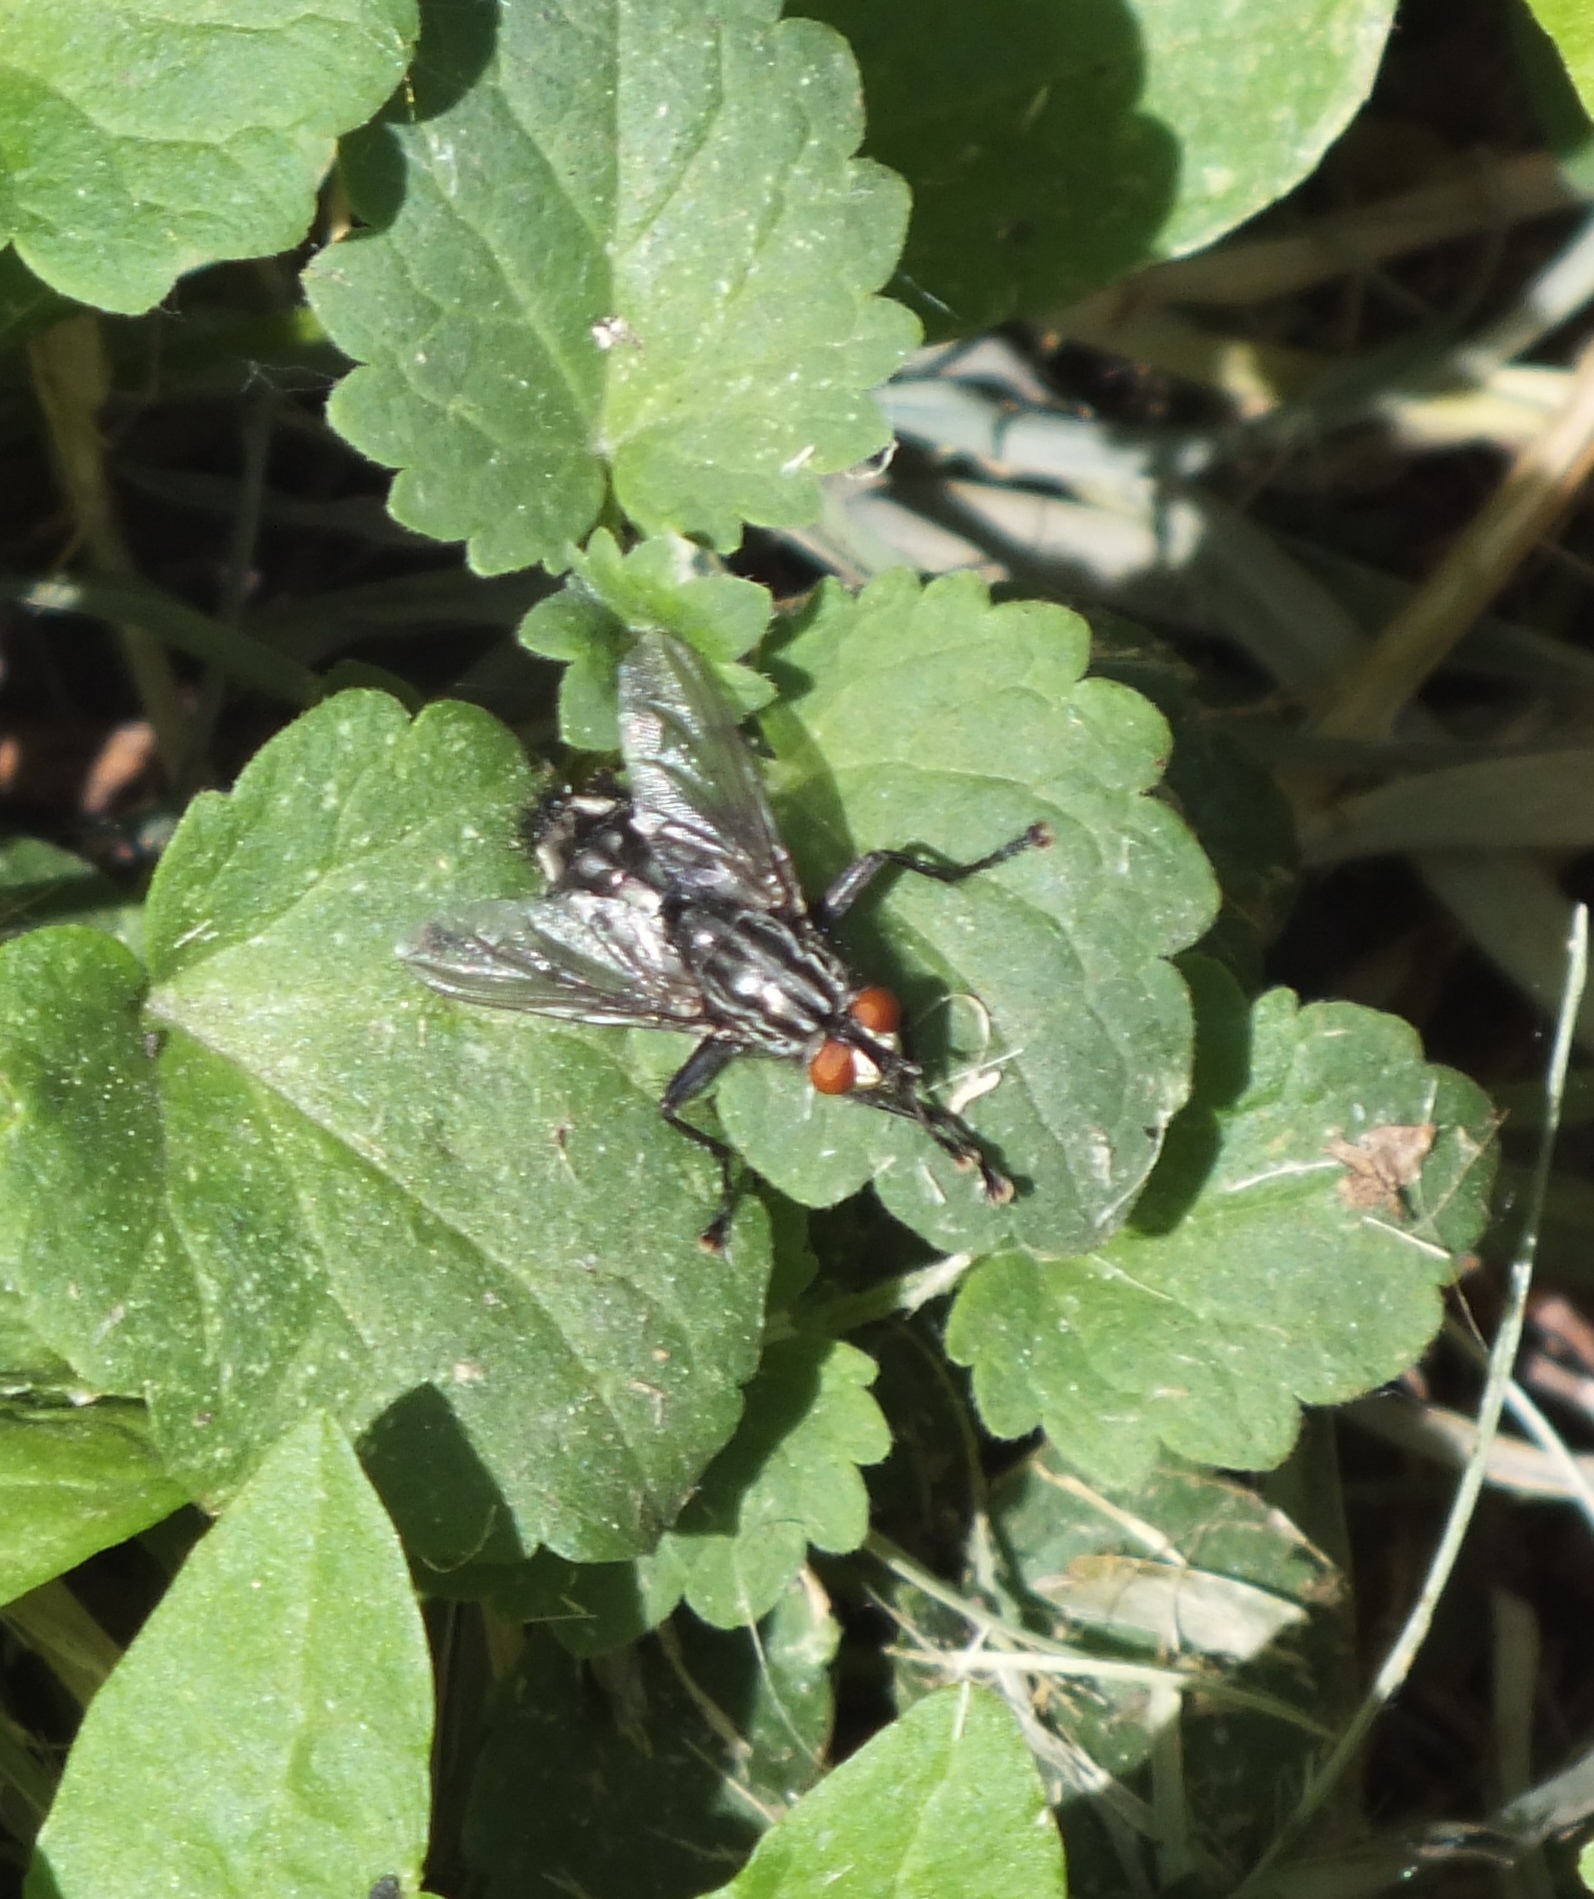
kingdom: Animalia
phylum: Arthropoda
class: Insecta
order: Diptera
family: Sarcophagidae
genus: Sarcophaga
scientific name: Sarcophaga
